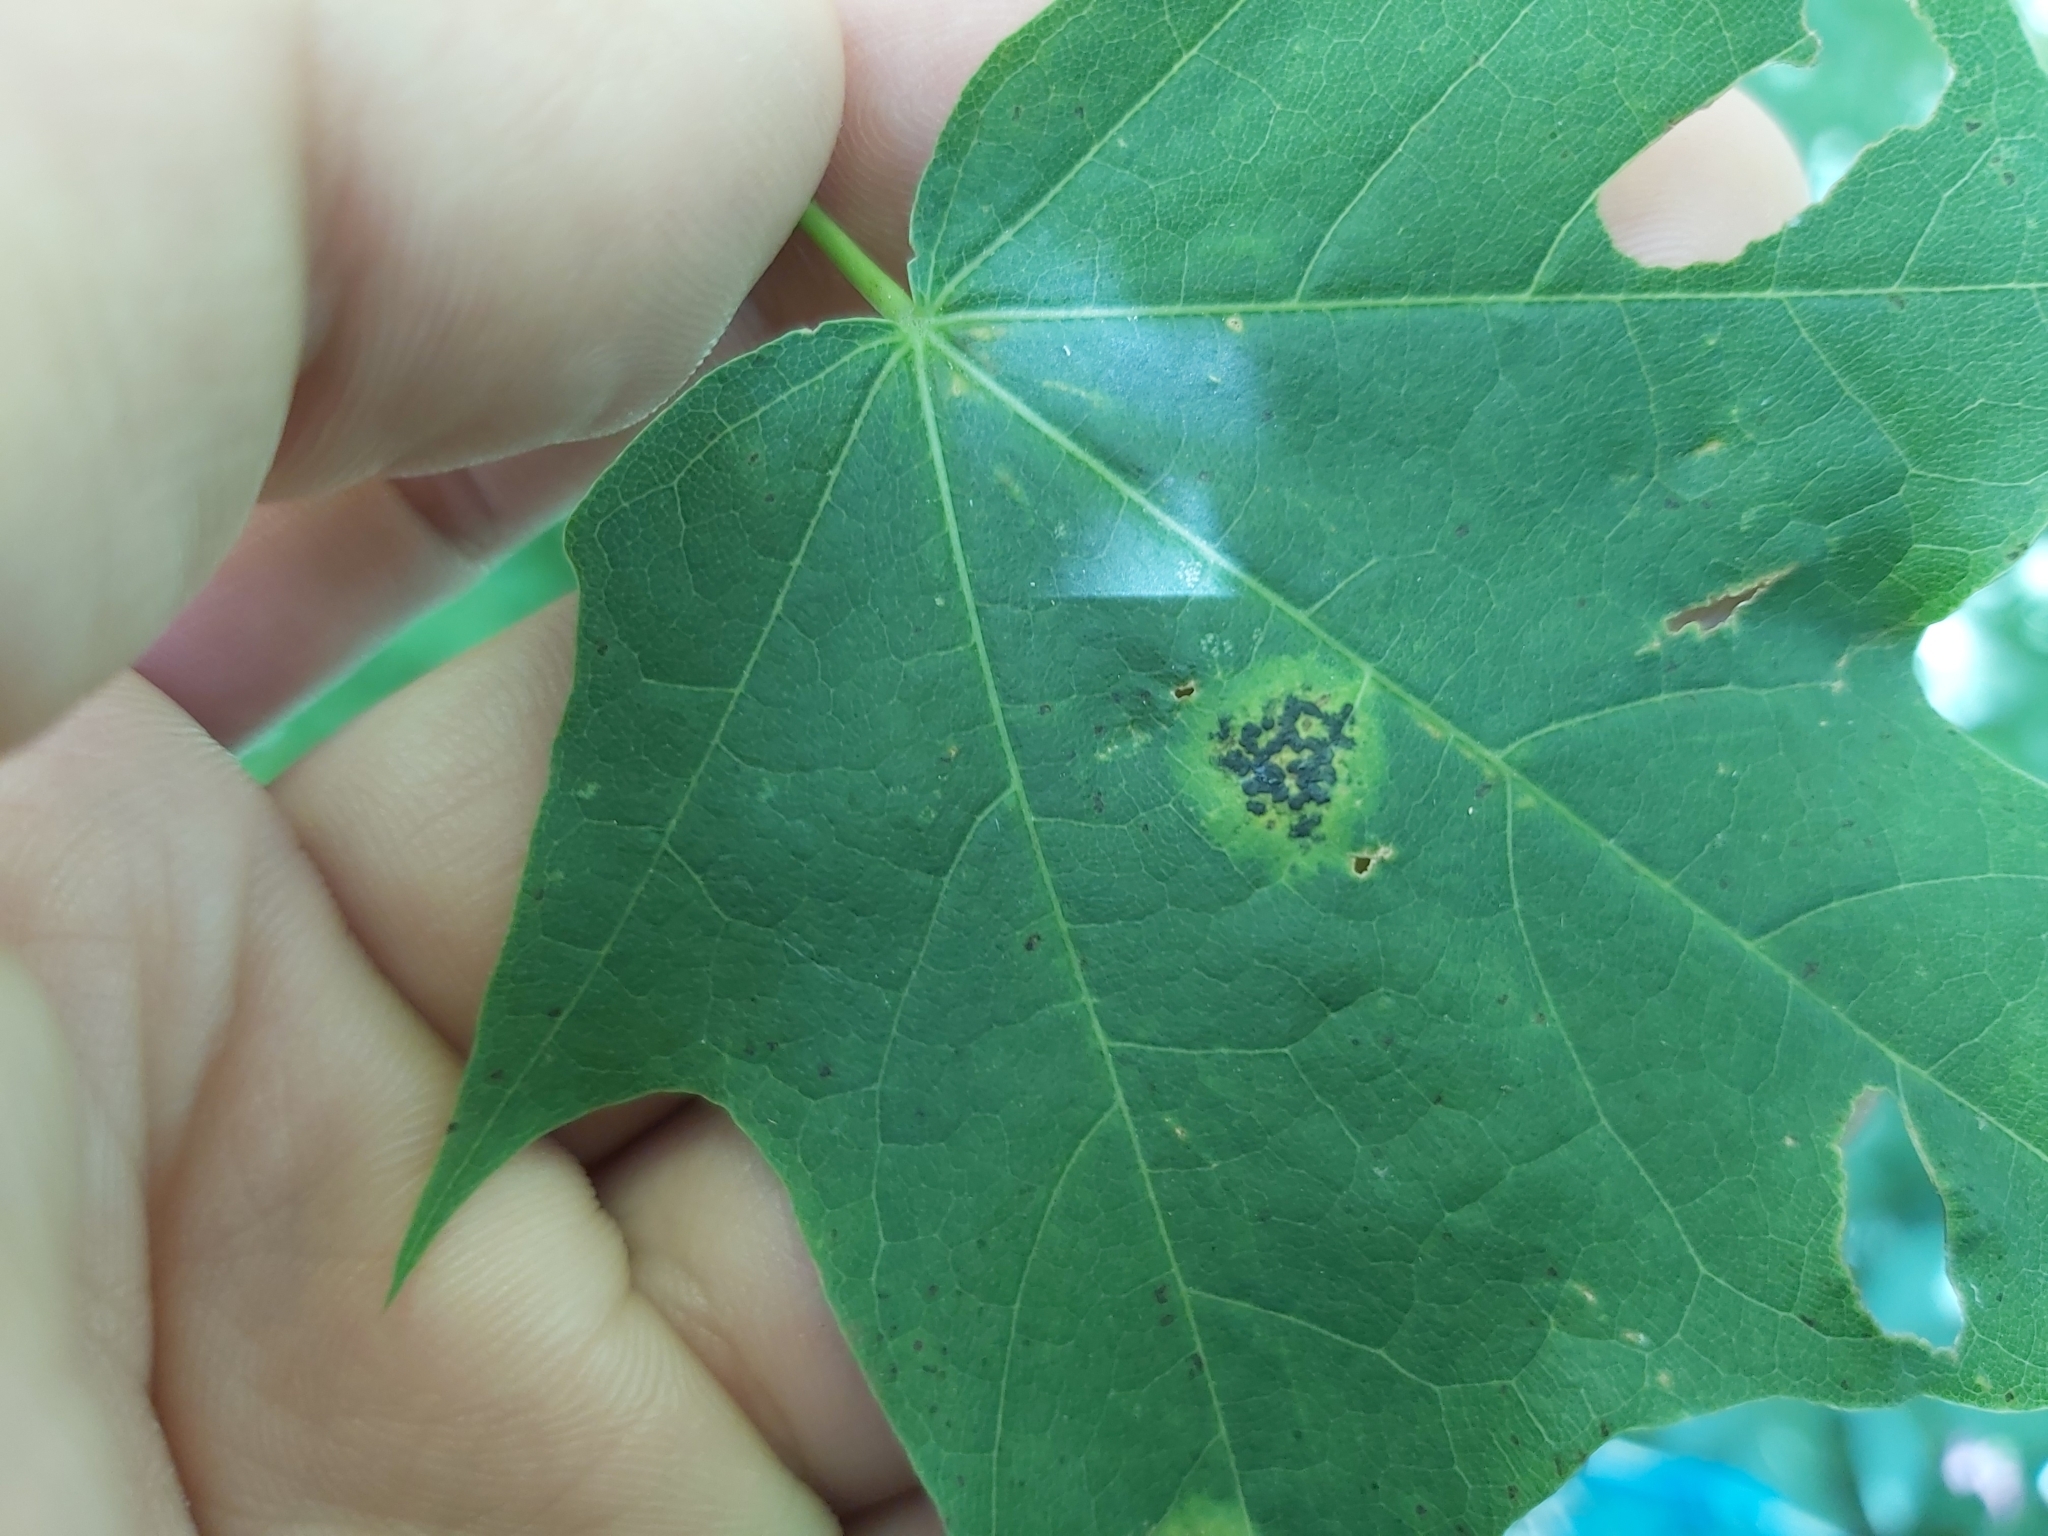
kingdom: Fungi
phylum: Ascomycota
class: Leotiomycetes
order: Rhytismatales
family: Rhytismataceae
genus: Rhytisma
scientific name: Rhytisma acerinum
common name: European tar spot
